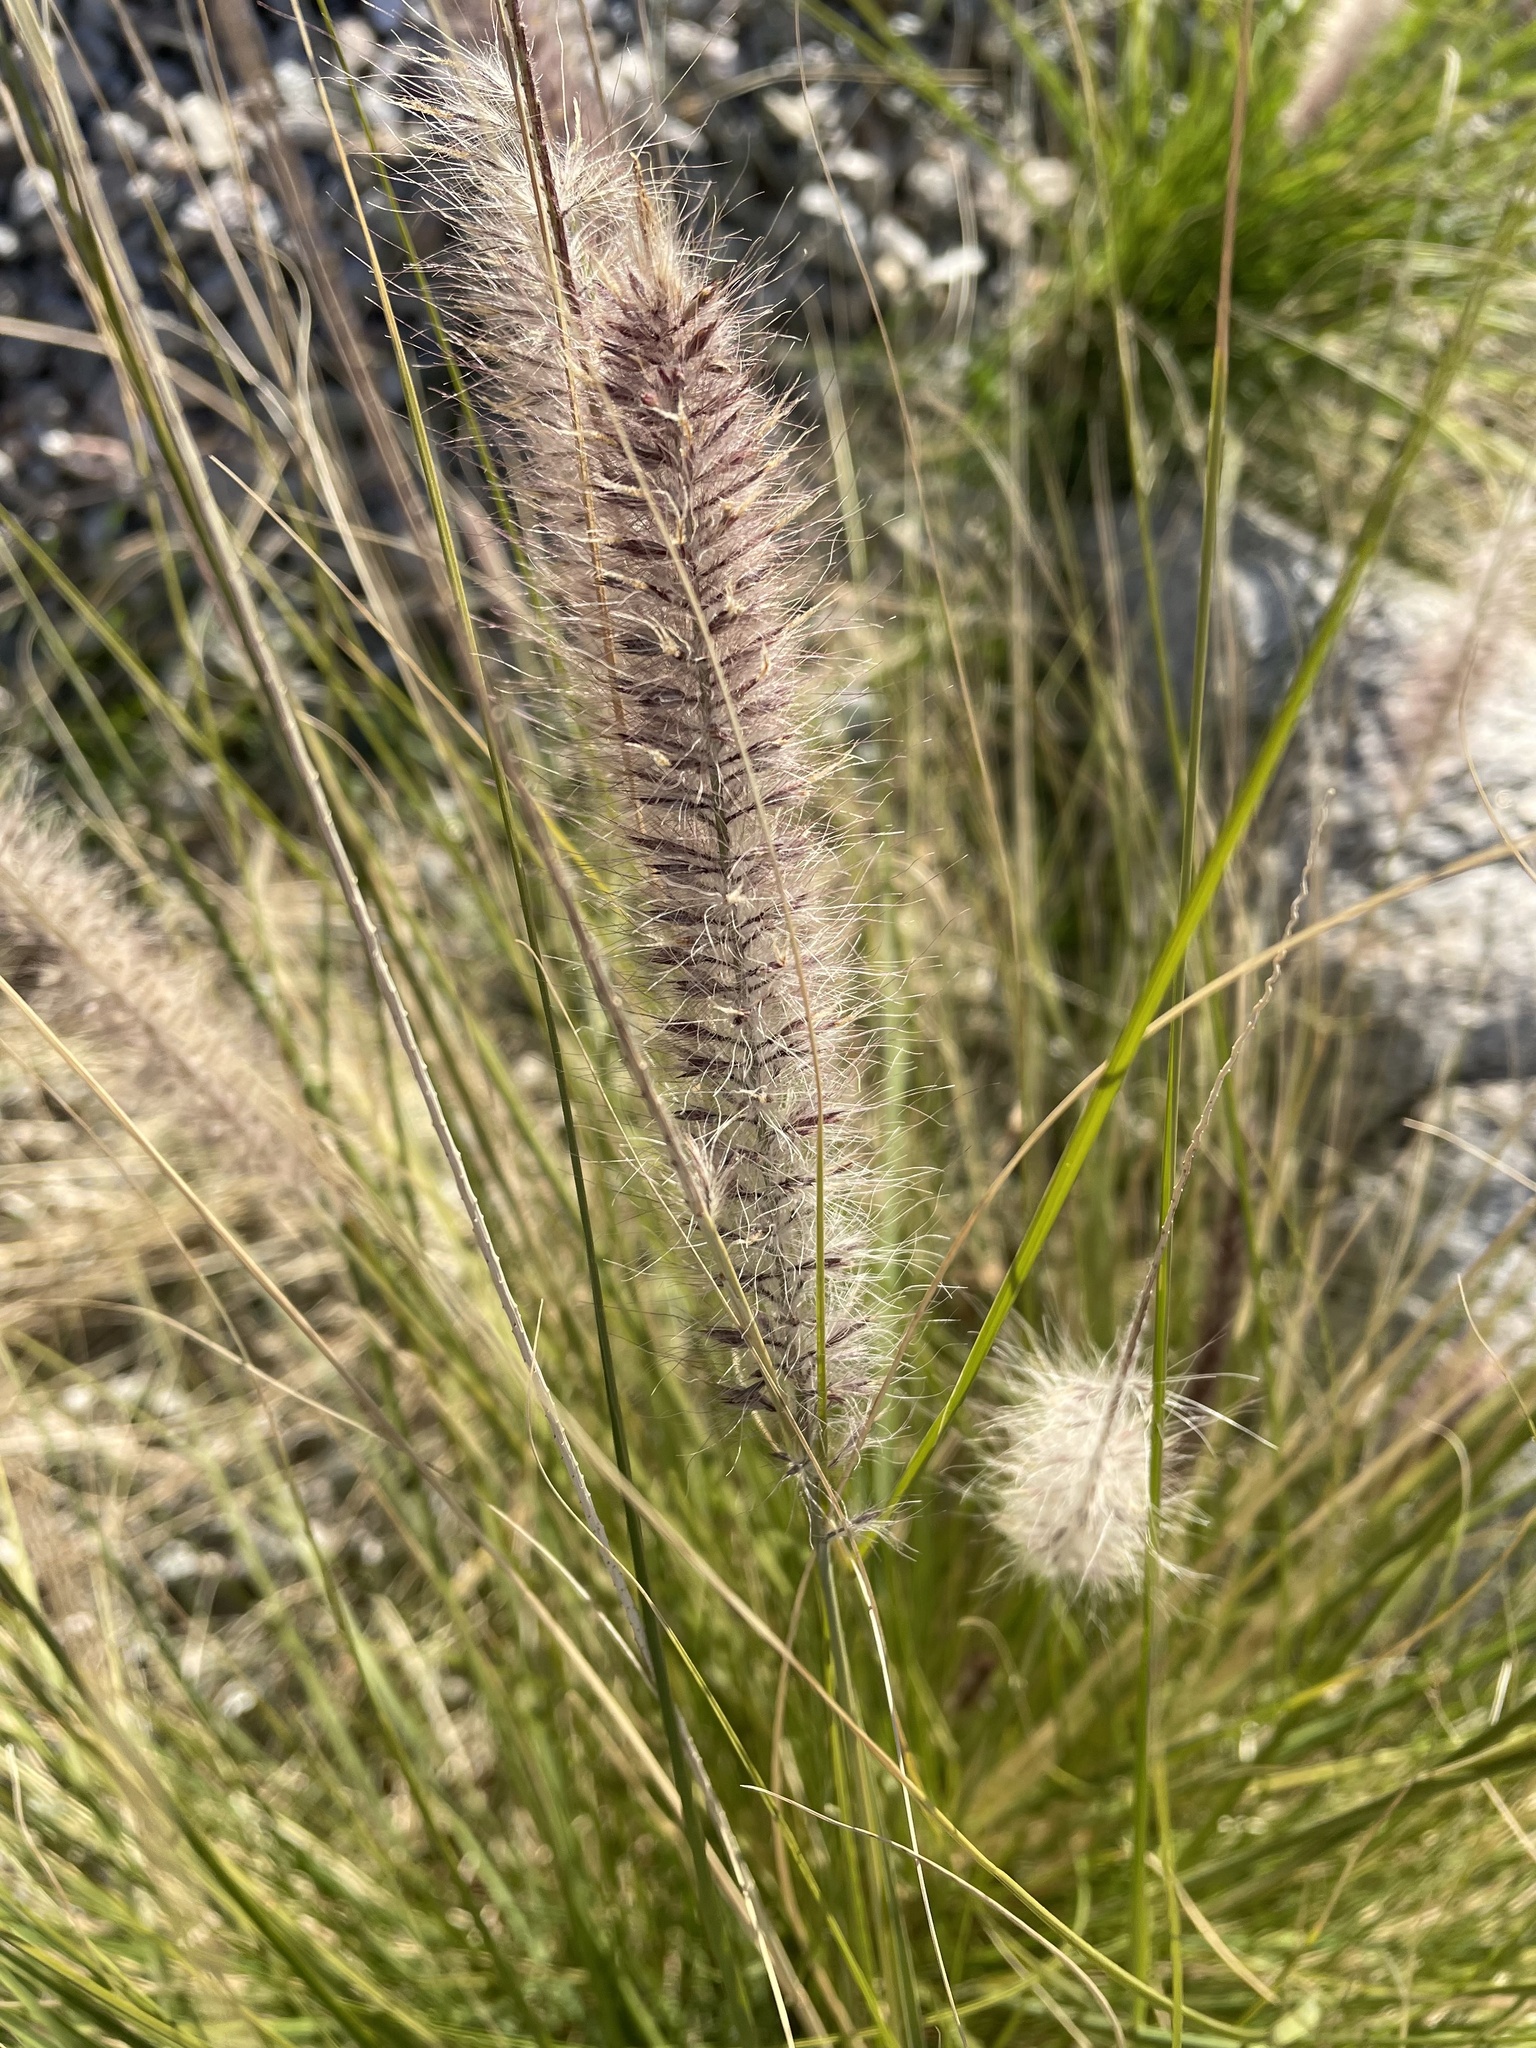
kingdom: Plantae
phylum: Tracheophyta
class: Liliopsida
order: Poales
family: Poaceae
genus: Cenchrus
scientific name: Cenchrus setaceus
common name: Crimson fountaingrass
